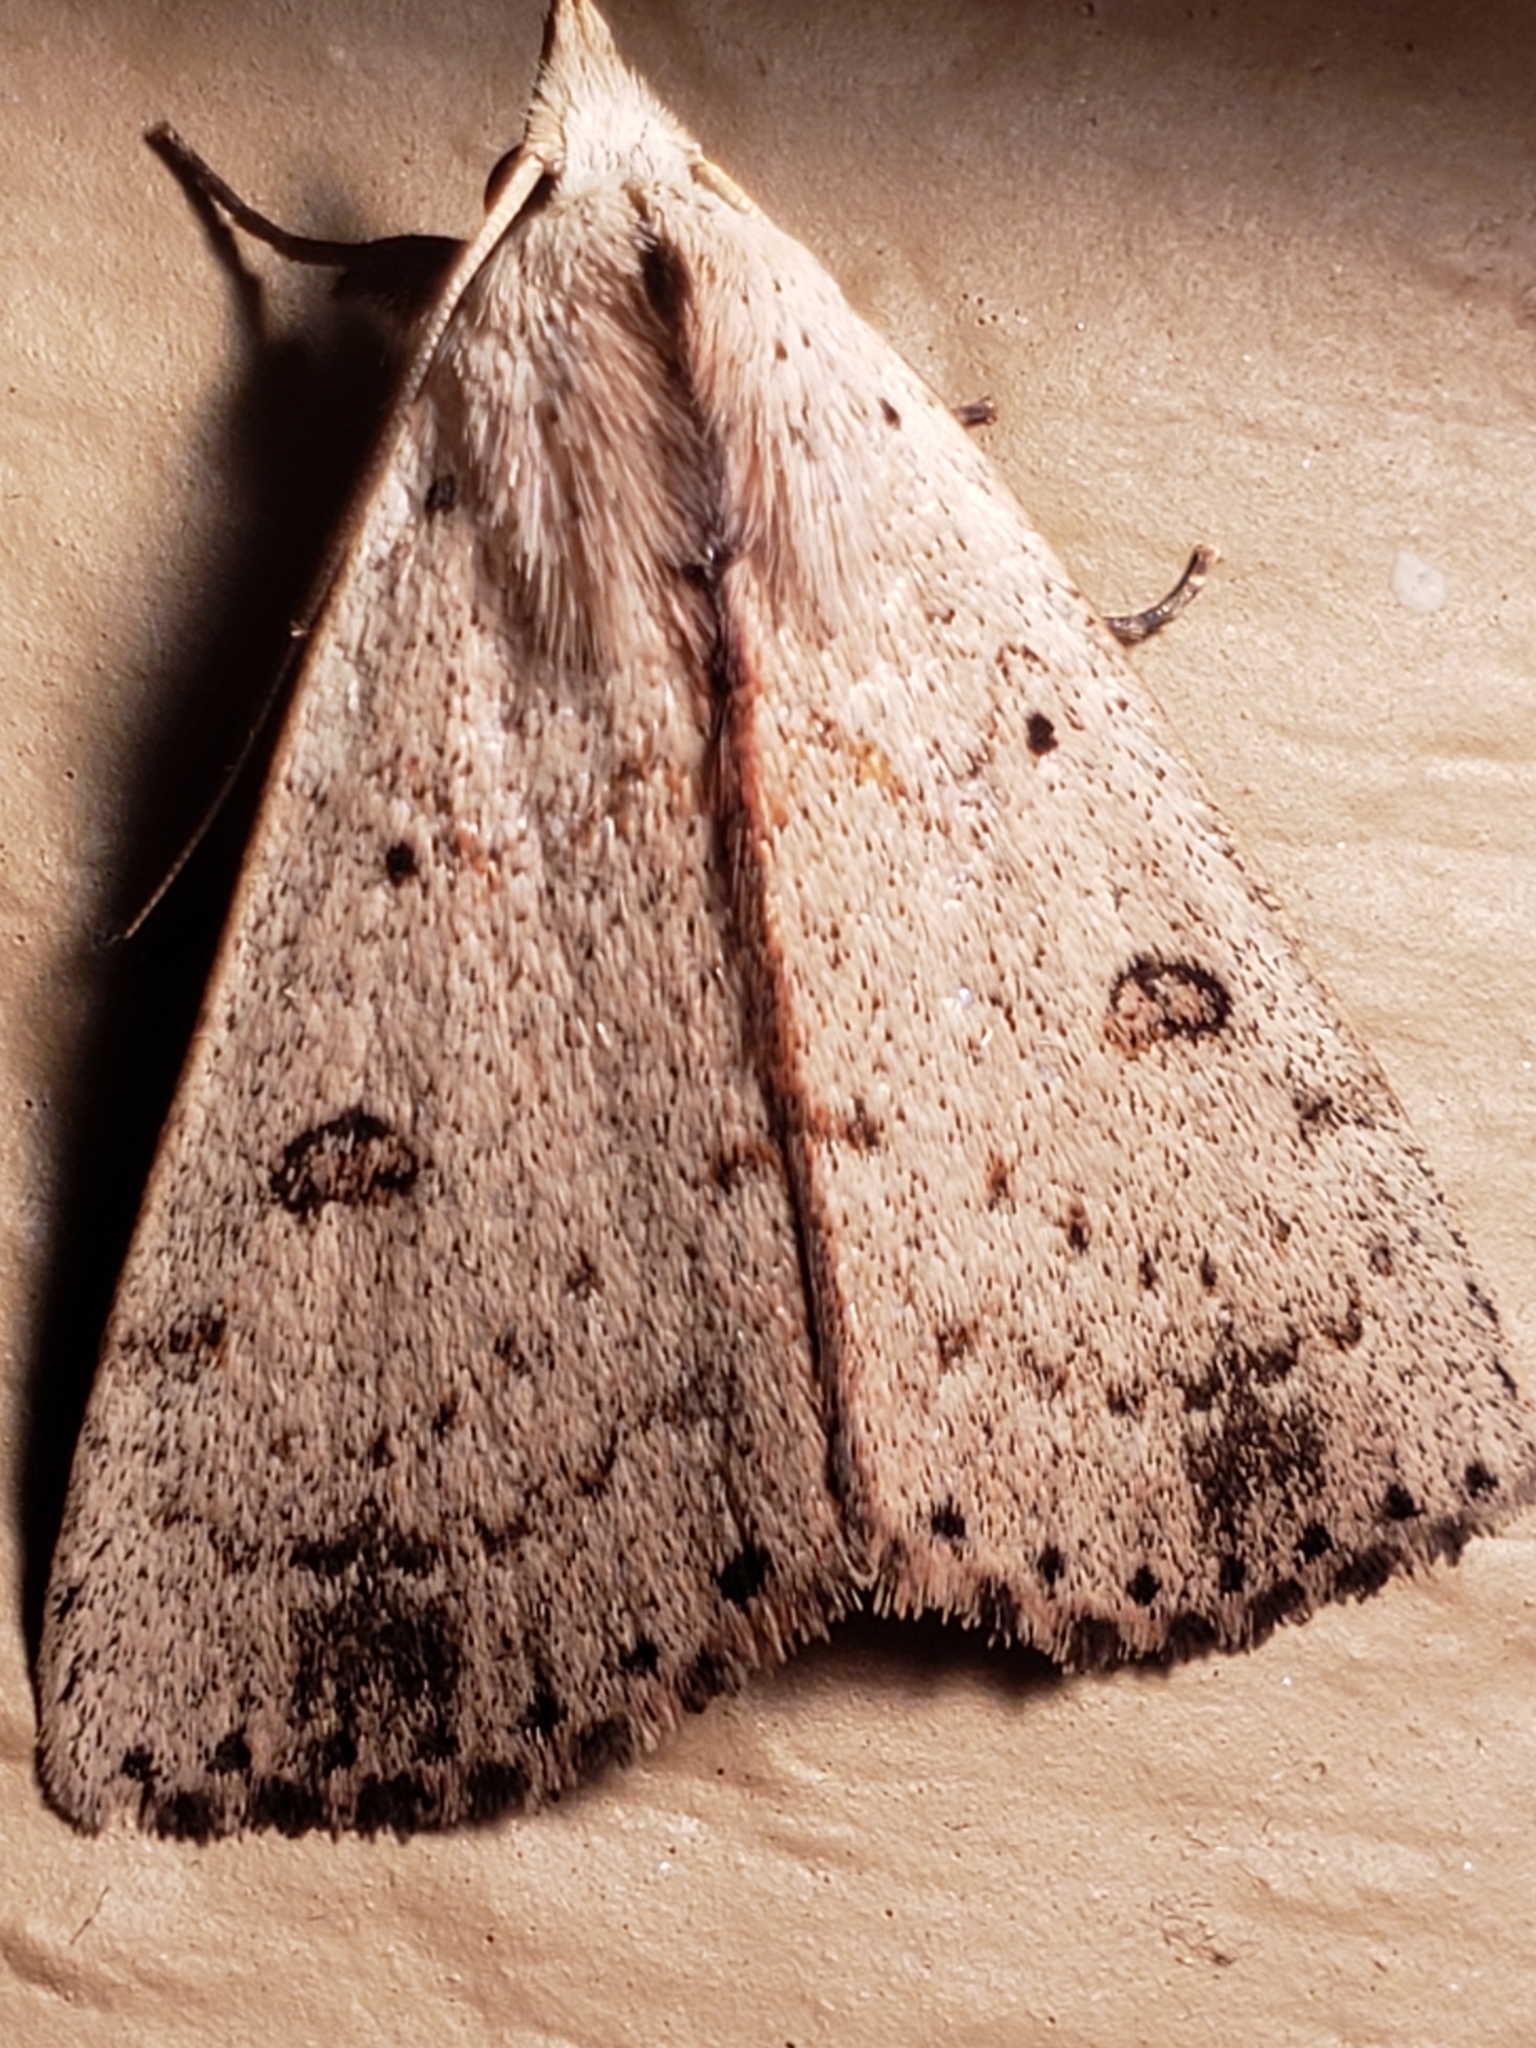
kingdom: Animalia
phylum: Arthropoda
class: Insecta
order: Lepidoptera
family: Erebidae
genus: Scolecocampa
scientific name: Scolecocampa liburna
